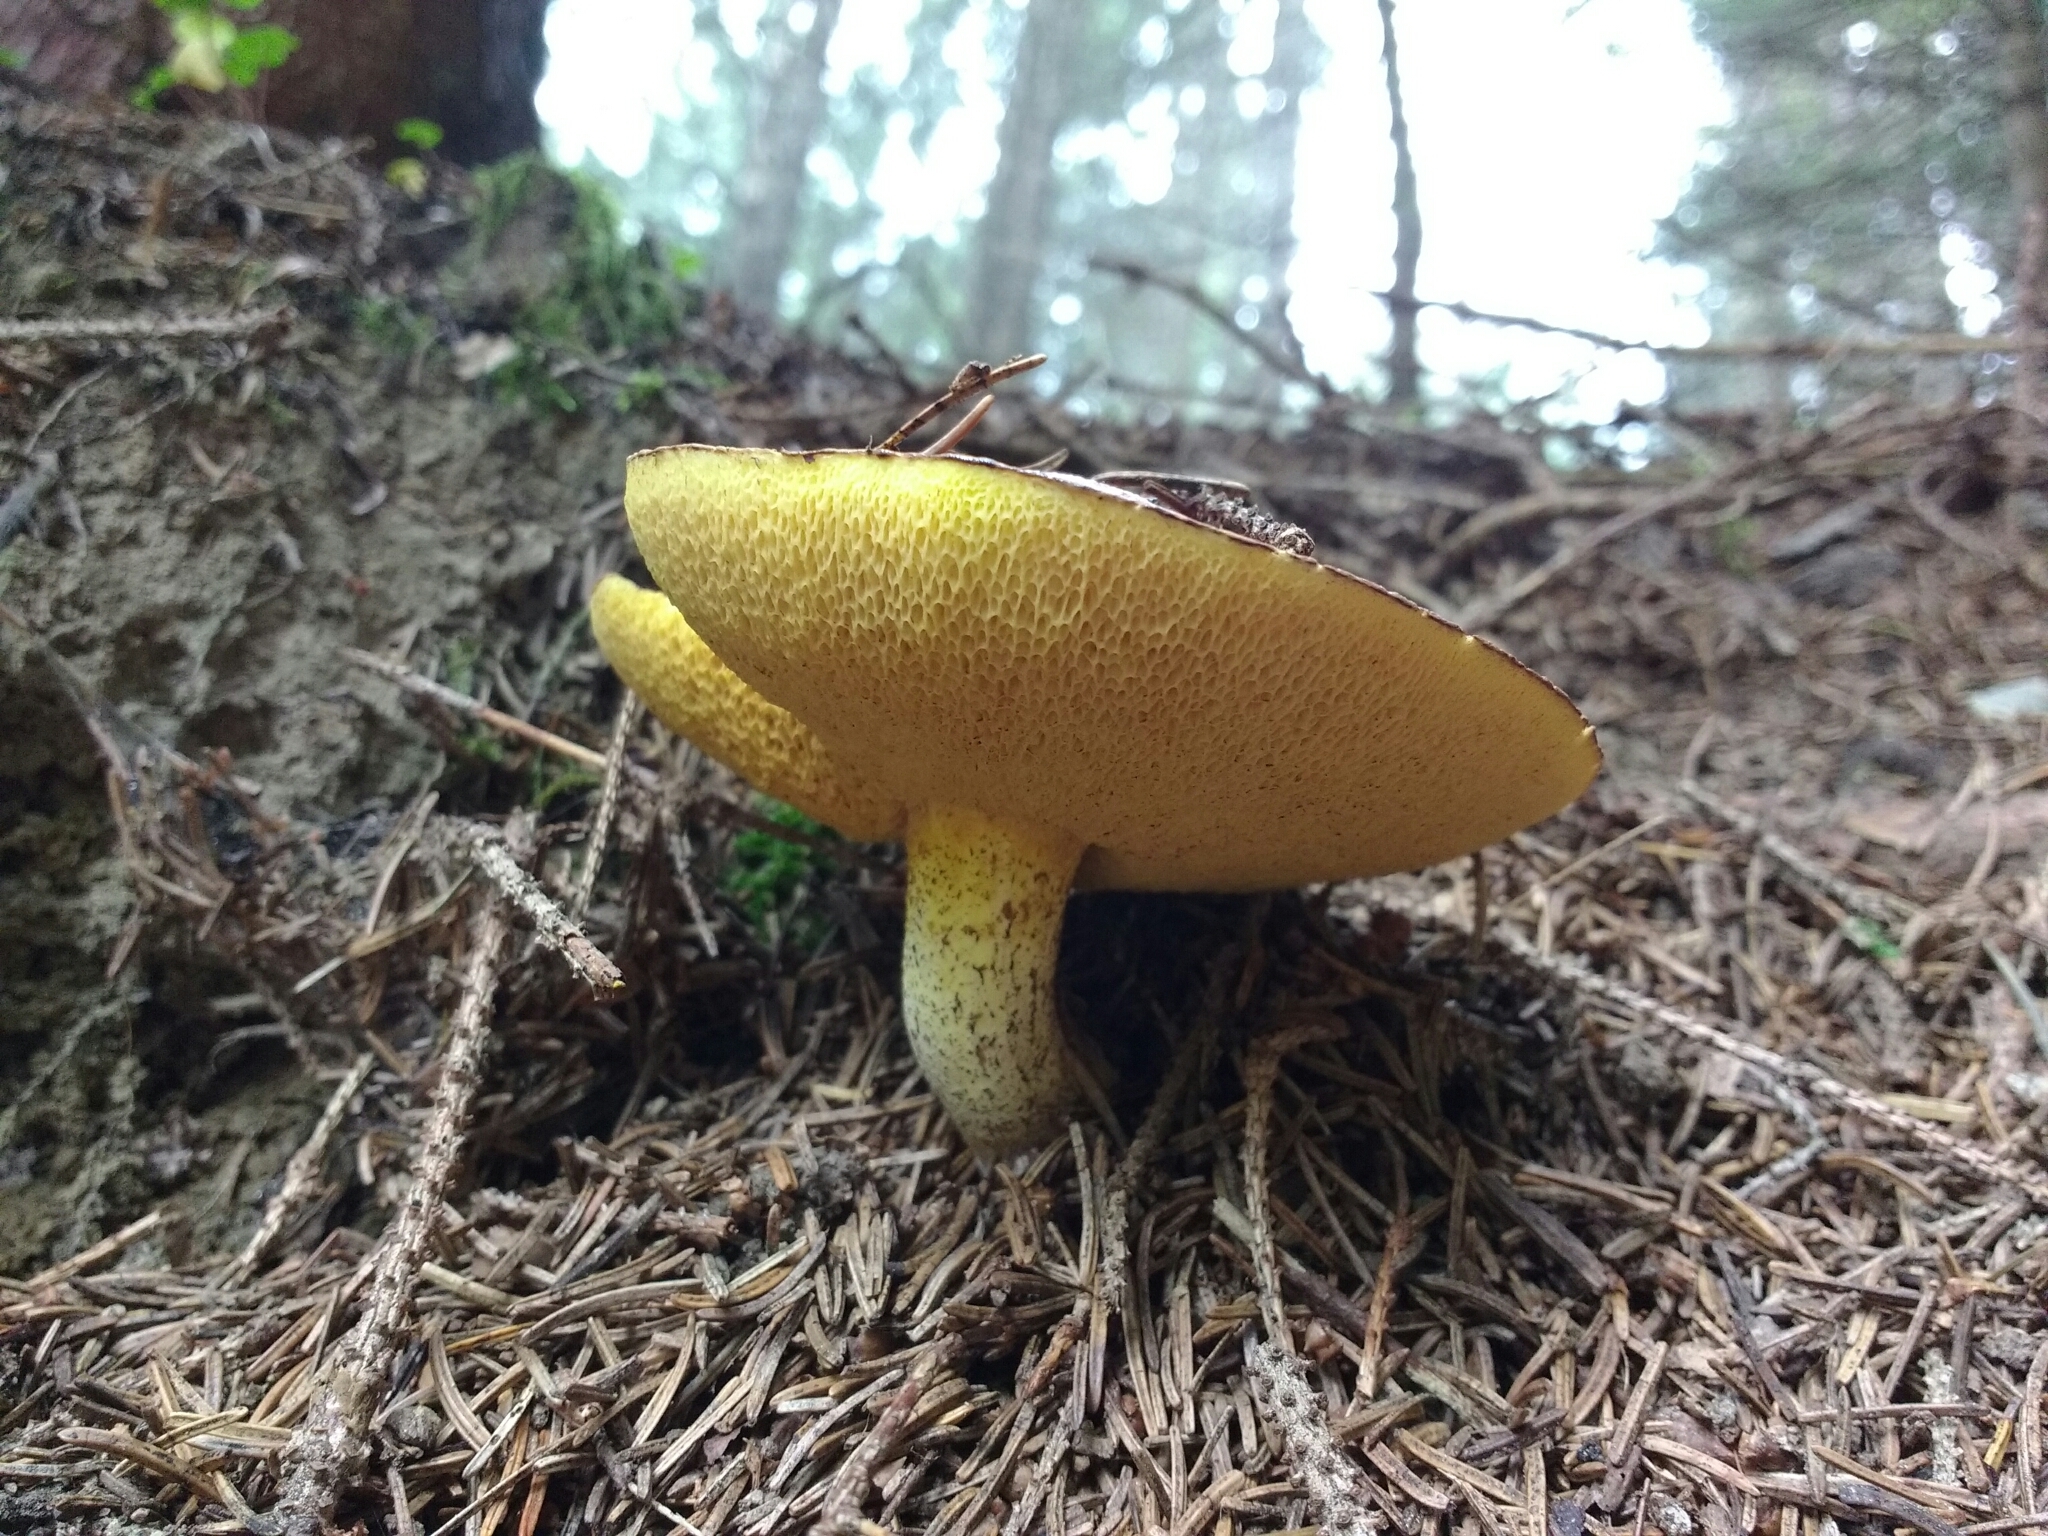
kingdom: Fungi
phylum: Basidiomycota
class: Agaricomycetes
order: Boletales
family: Suillaceae
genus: Suillus
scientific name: Suillus granulatus
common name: Weeping bolete
